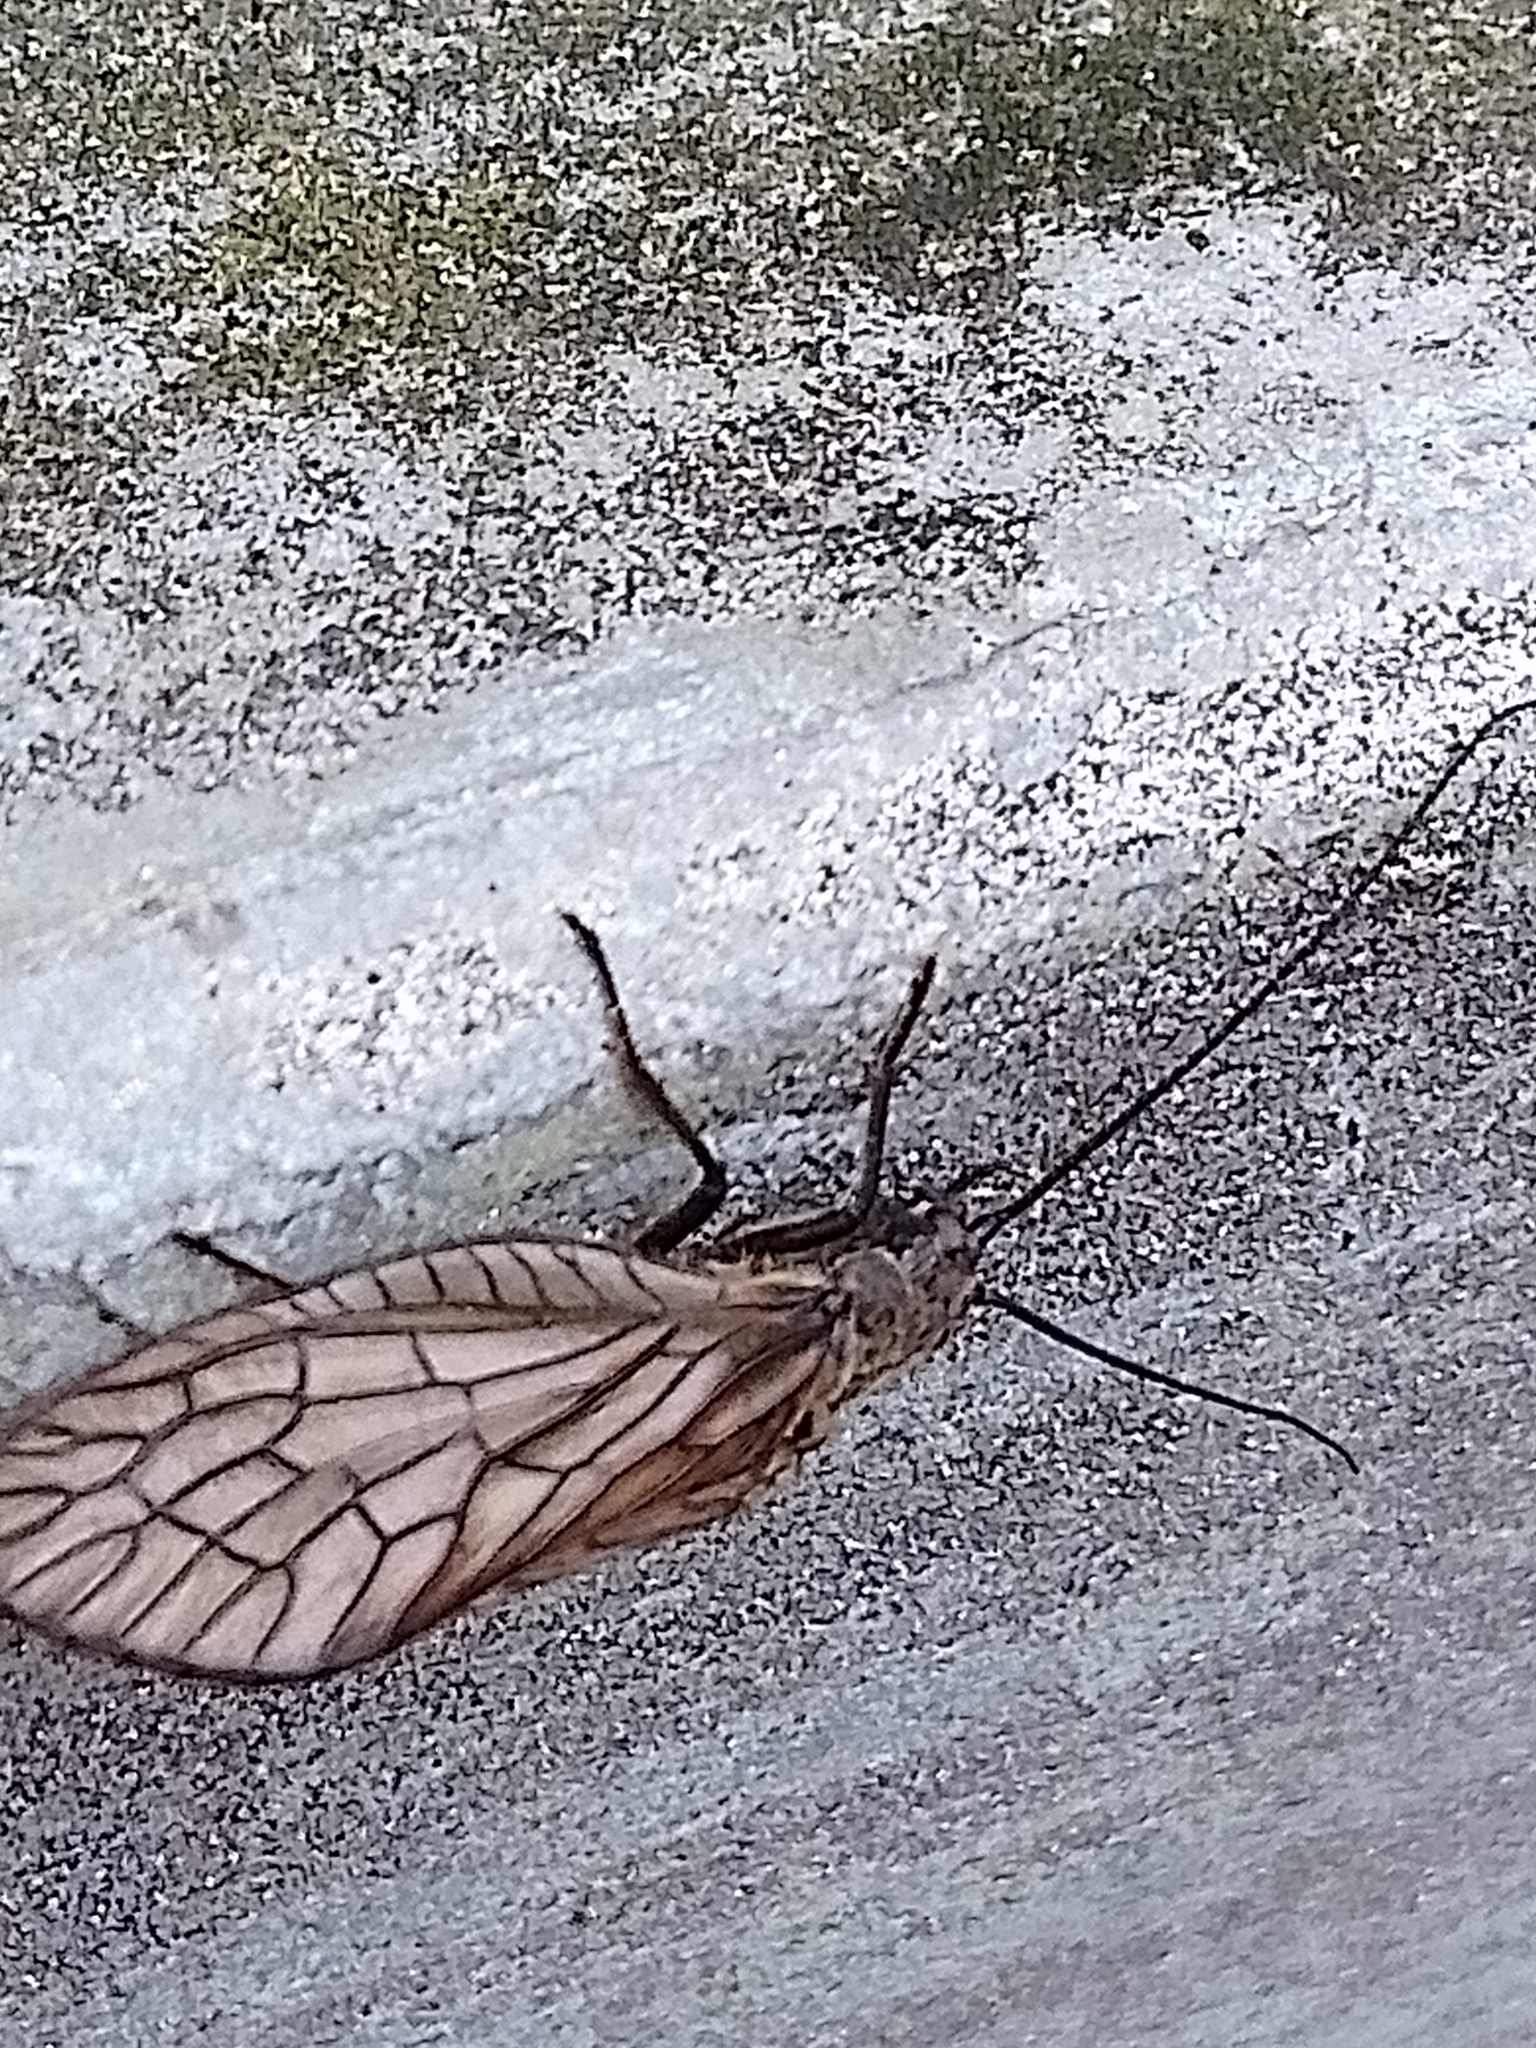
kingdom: Animalia
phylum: Arthropoda
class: Insecta
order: Megaloptera
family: Sialidae
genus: Sialis
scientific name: Sialis
